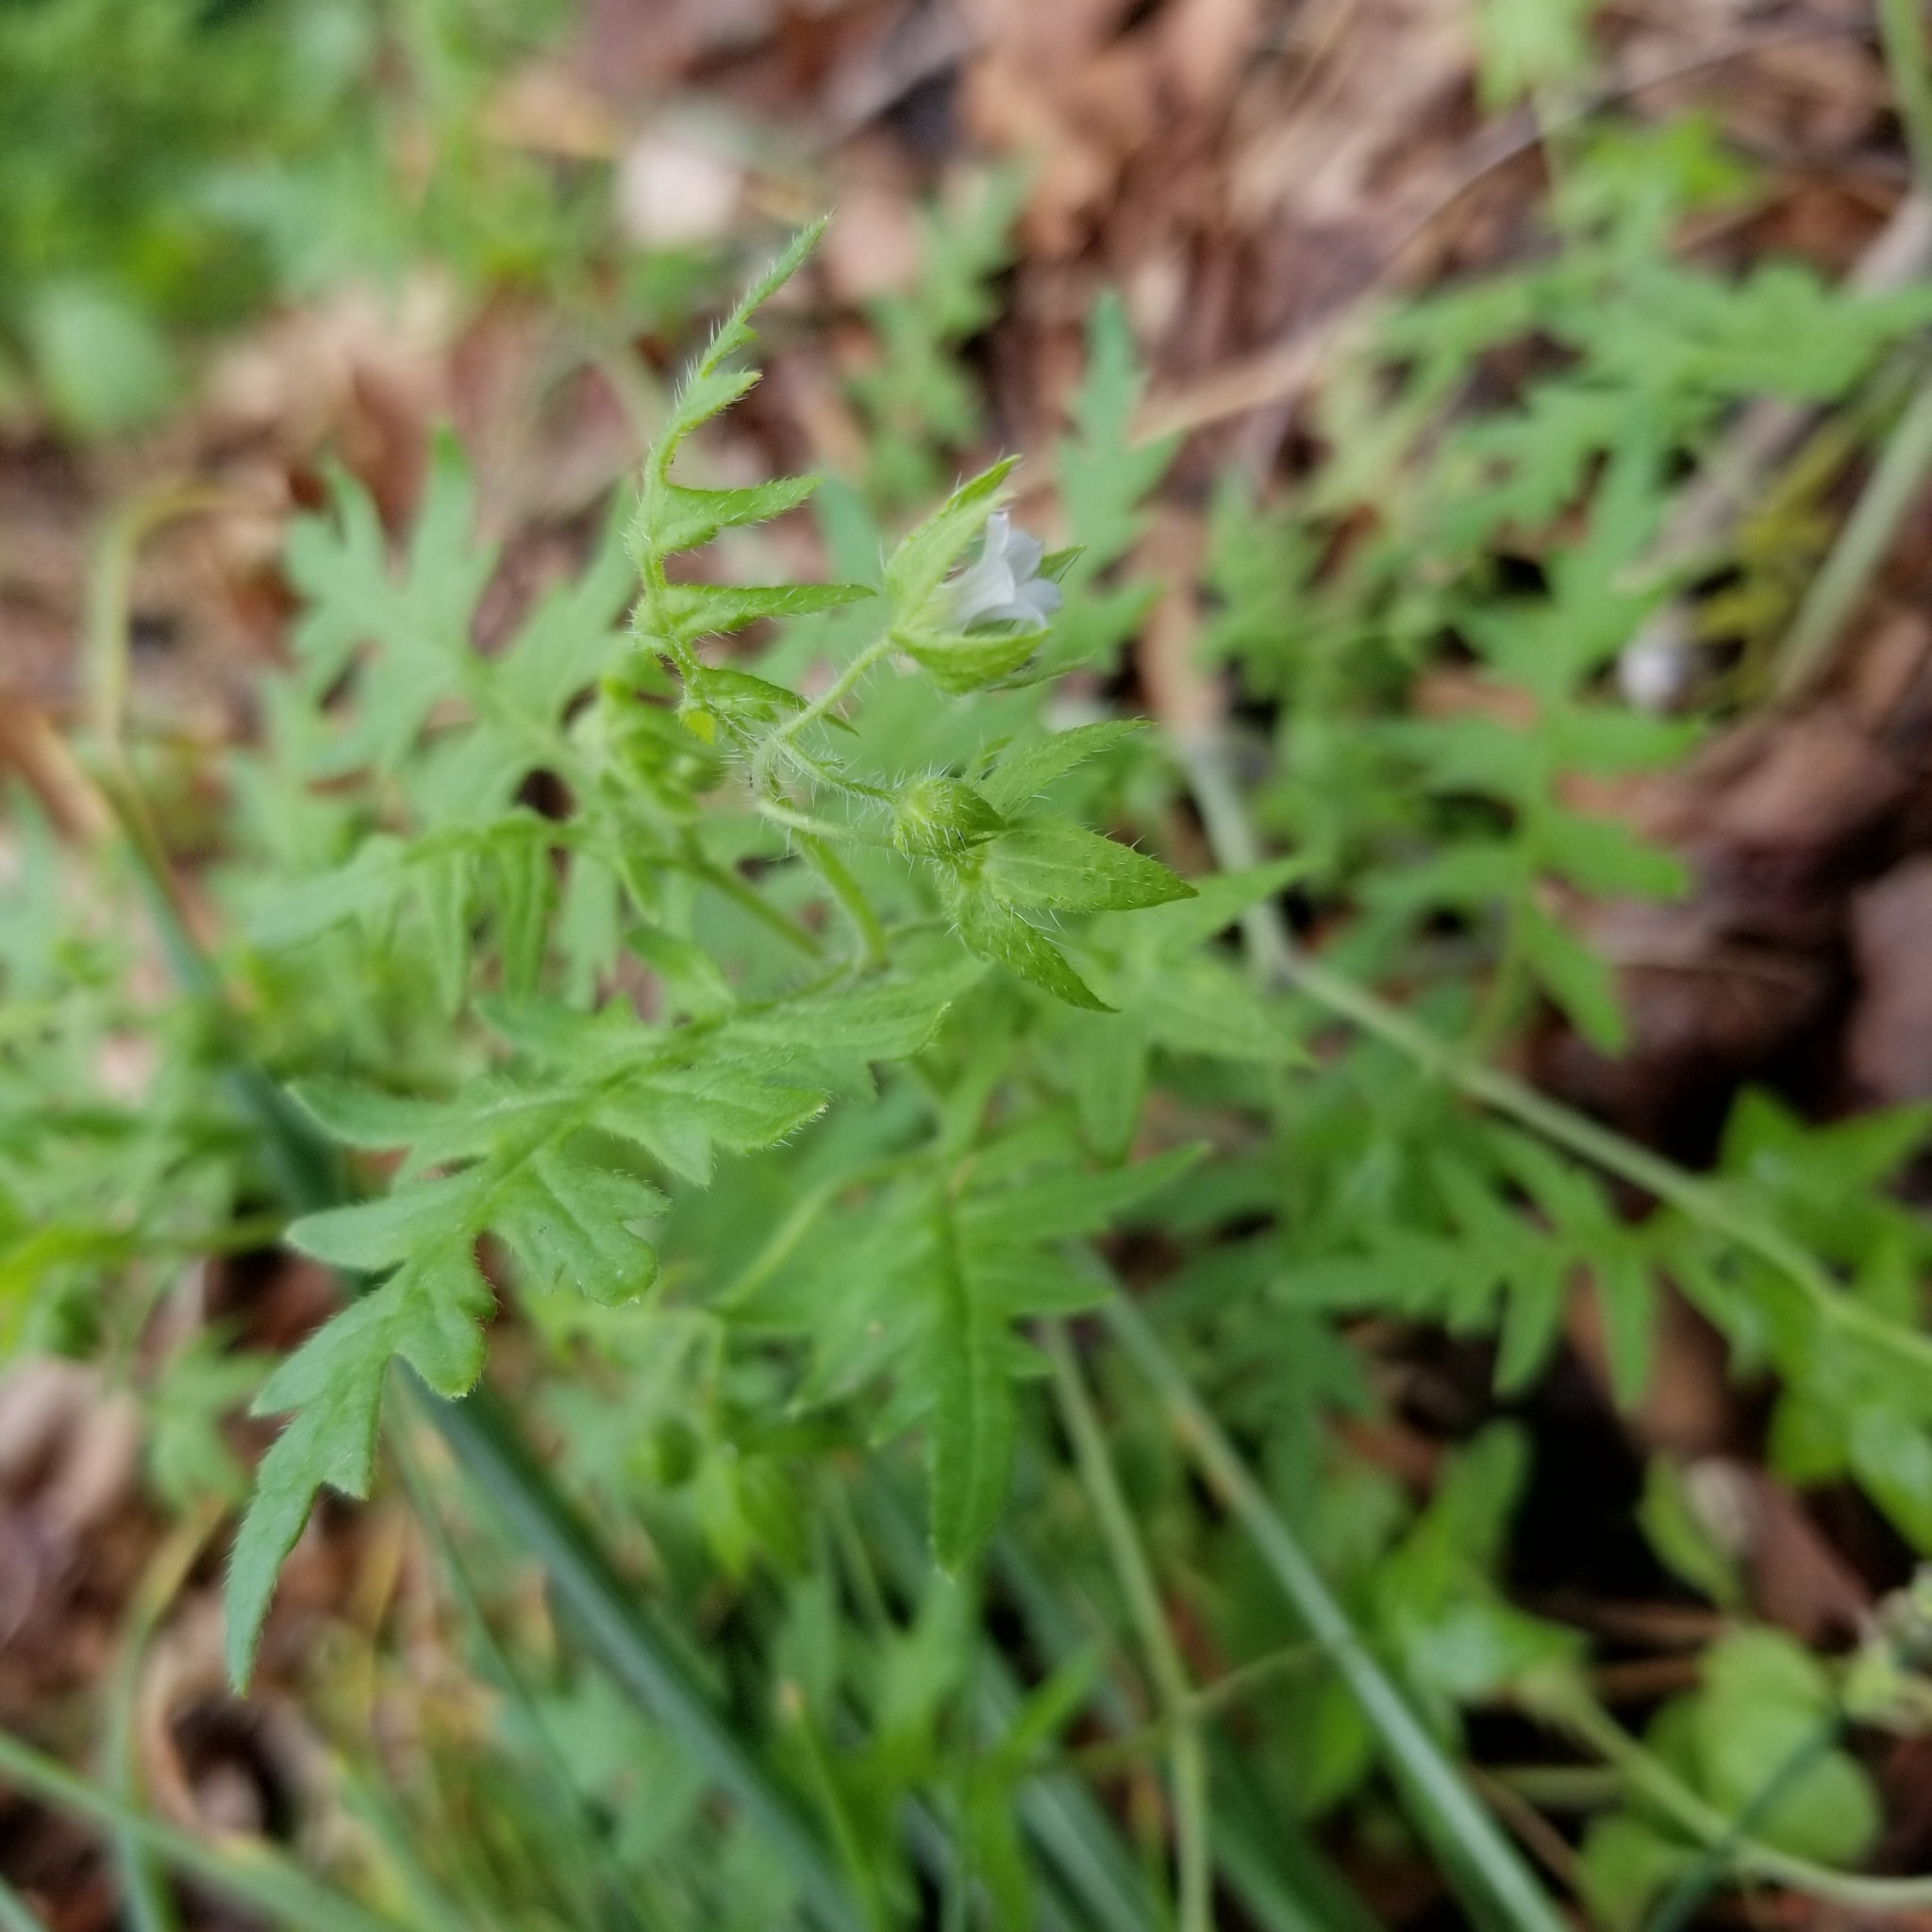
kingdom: Plantae
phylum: Tracheophyta
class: Magnoliopsida
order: Boraginales
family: Hydrophyllaceae
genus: Ellisia
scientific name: Ellisia nyctelea
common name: Aunt lucy
